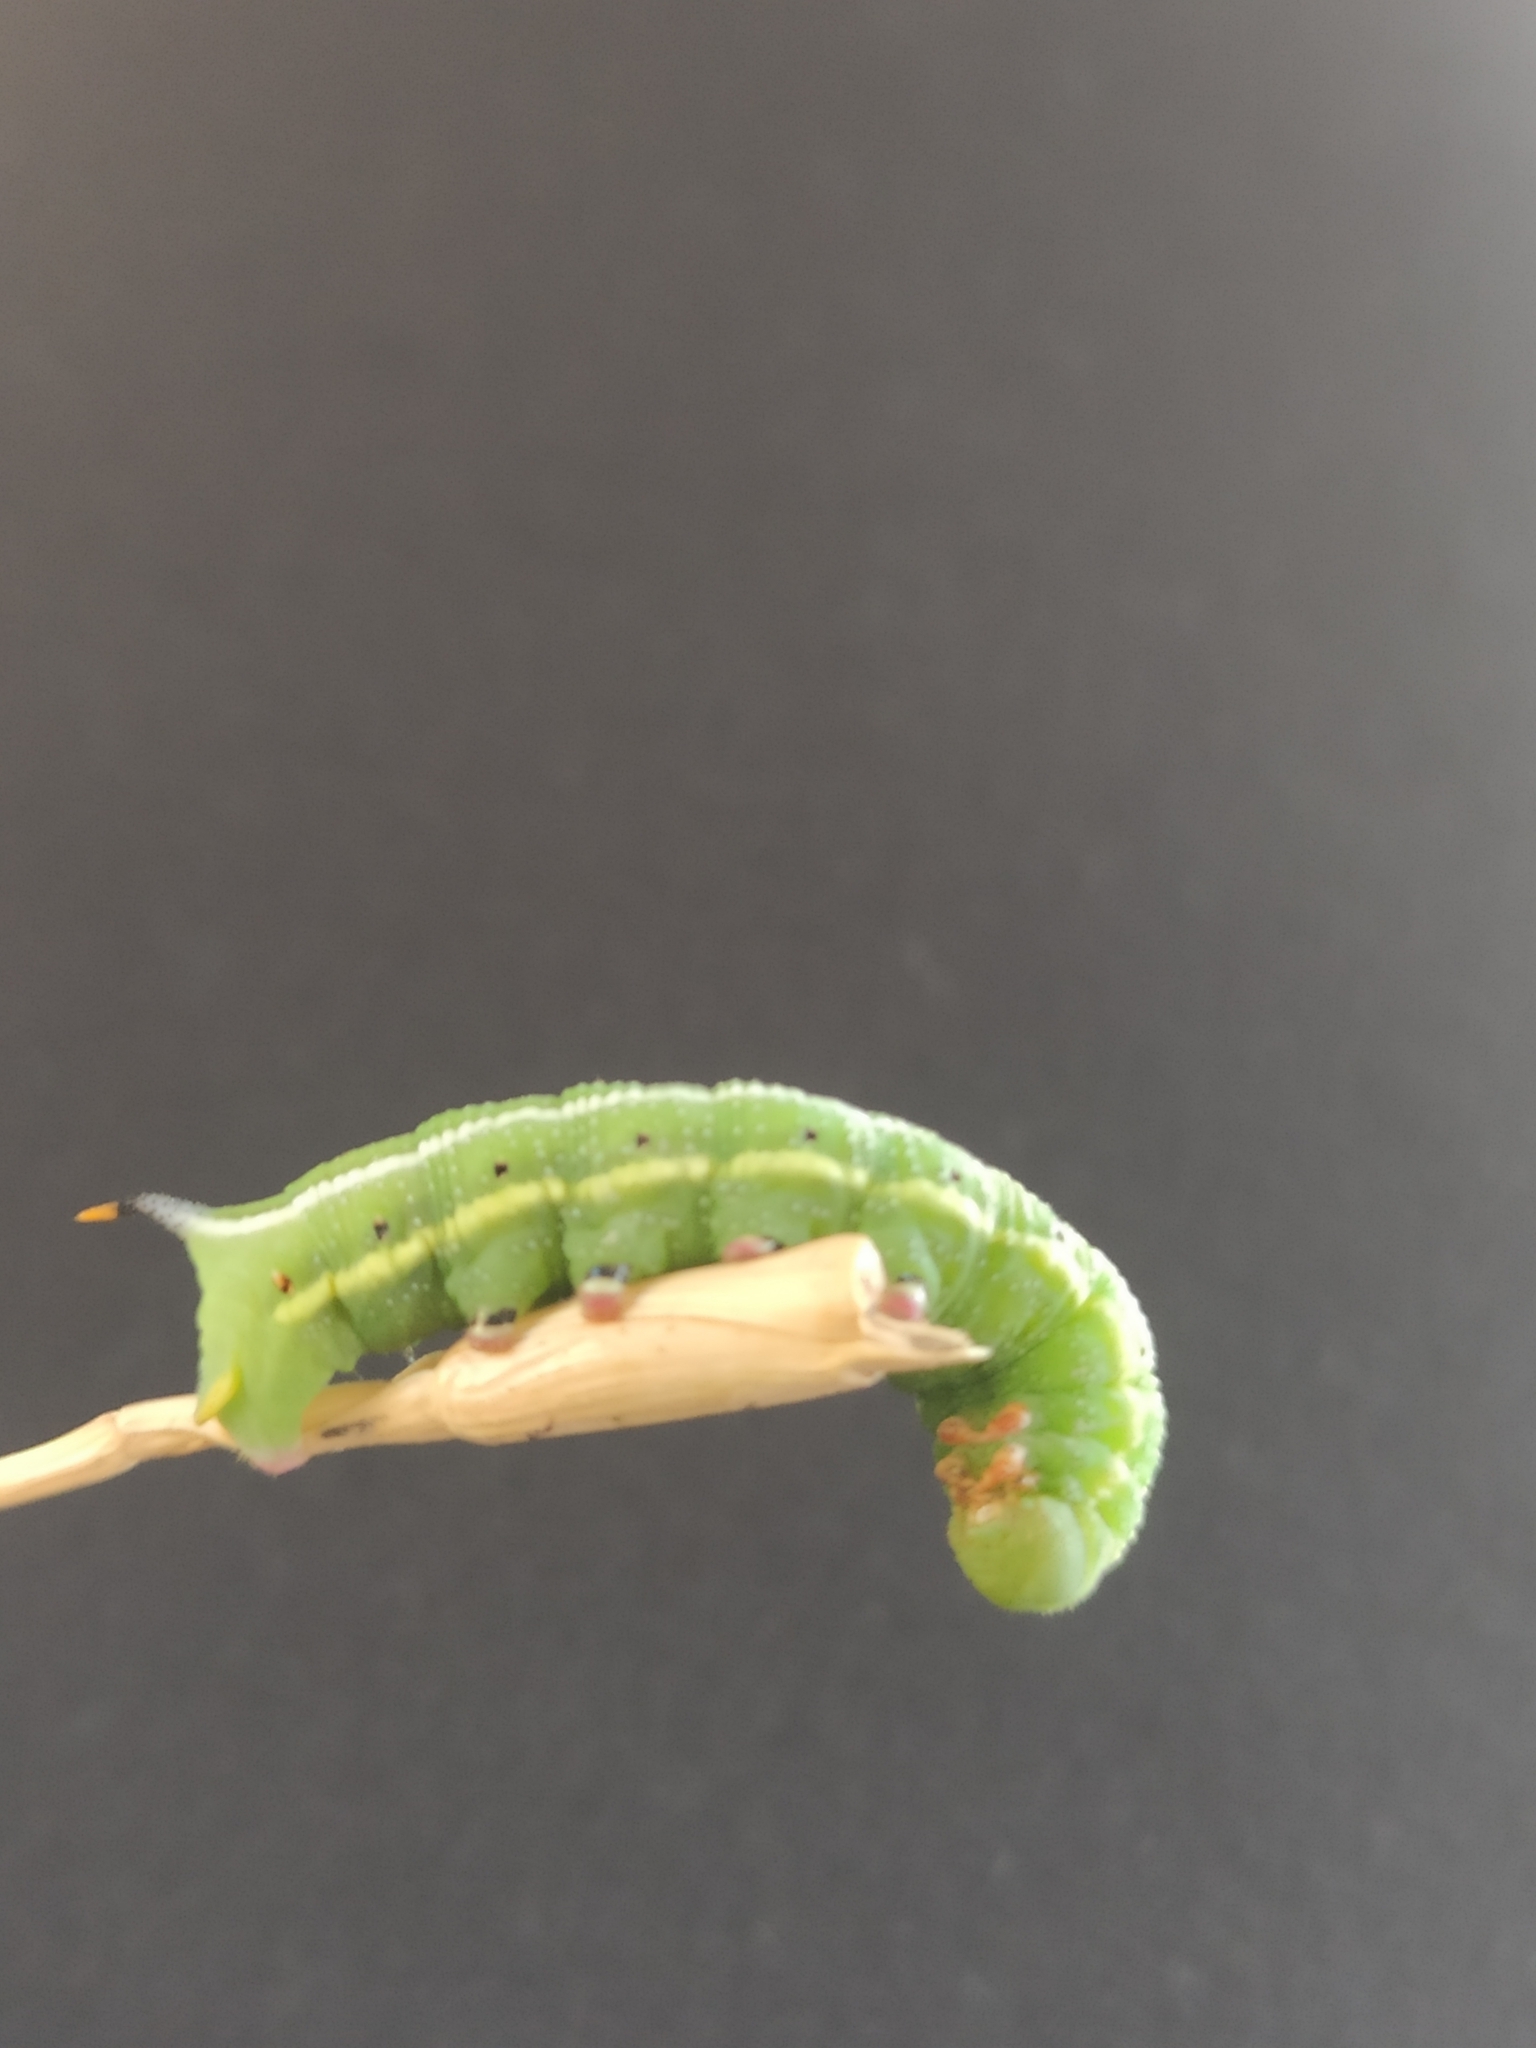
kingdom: Animalia
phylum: Arthropoda
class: Insecta
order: Lepidoptera
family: Sphingidae
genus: Macroglossum
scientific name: Macroglossum stellatarum
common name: Humming-bird hawk-moth
